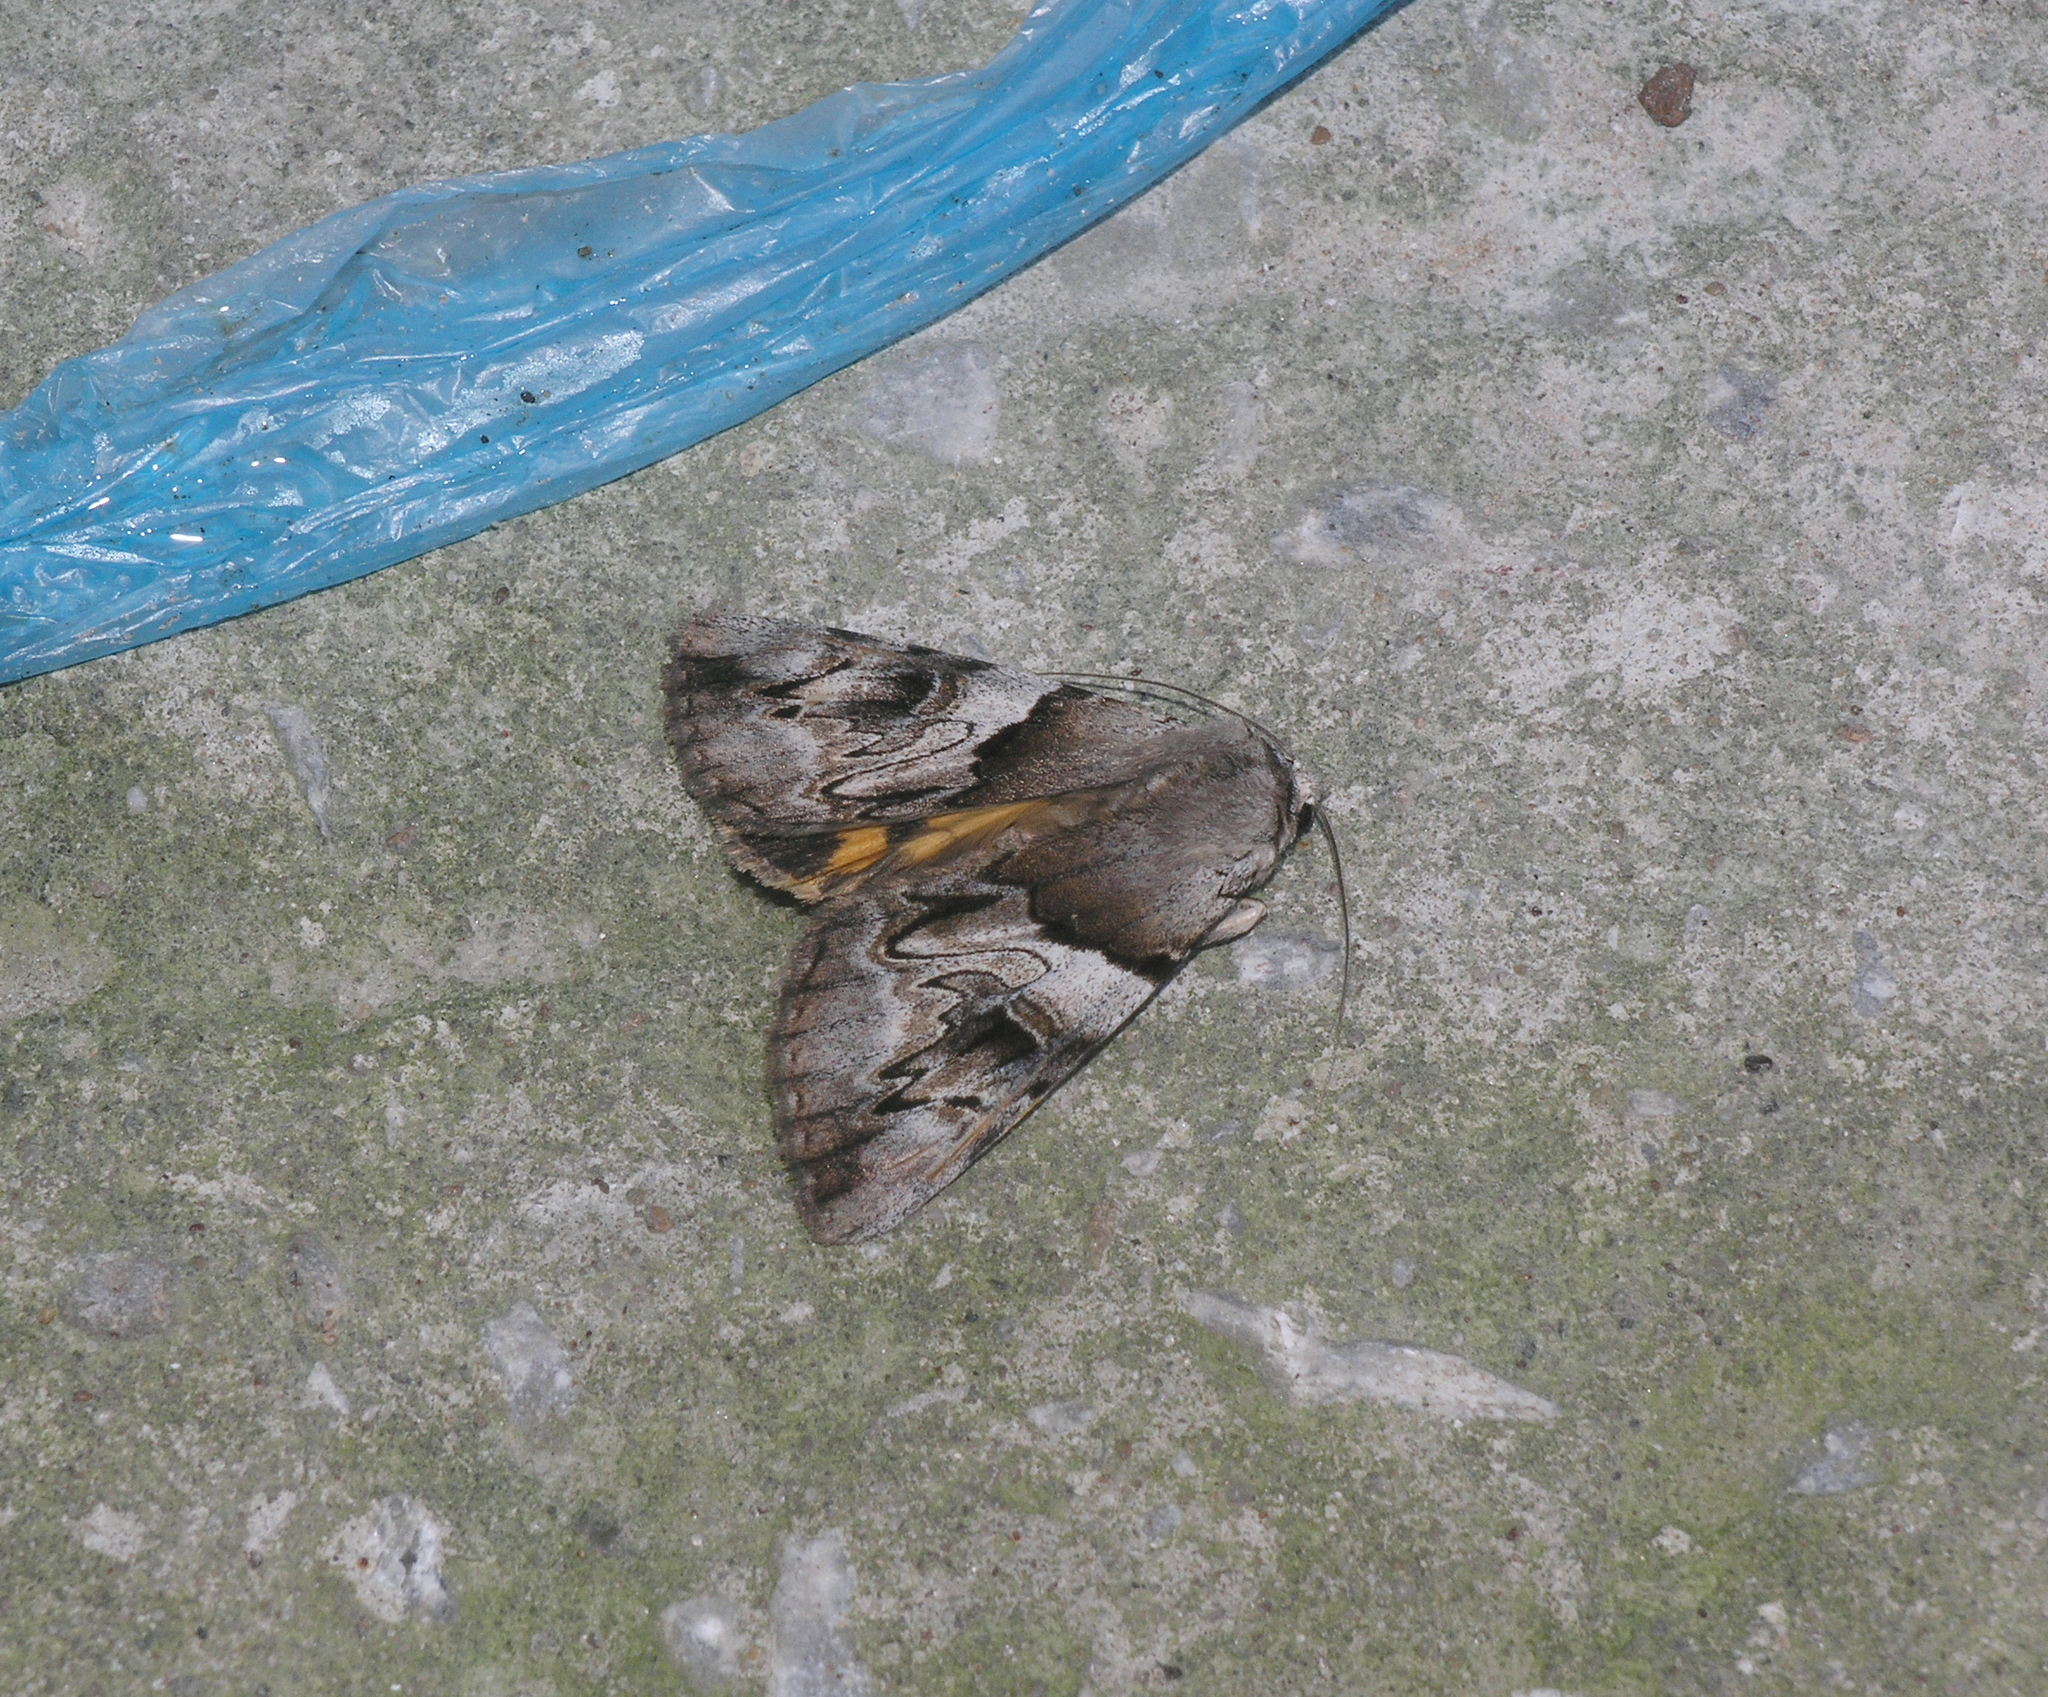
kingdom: Animalia
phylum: Arthropoda
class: Insecta
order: Lepidoptera
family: Erebidae
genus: Catocala
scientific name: Catocala fulminea
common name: Yellow bands underwing
